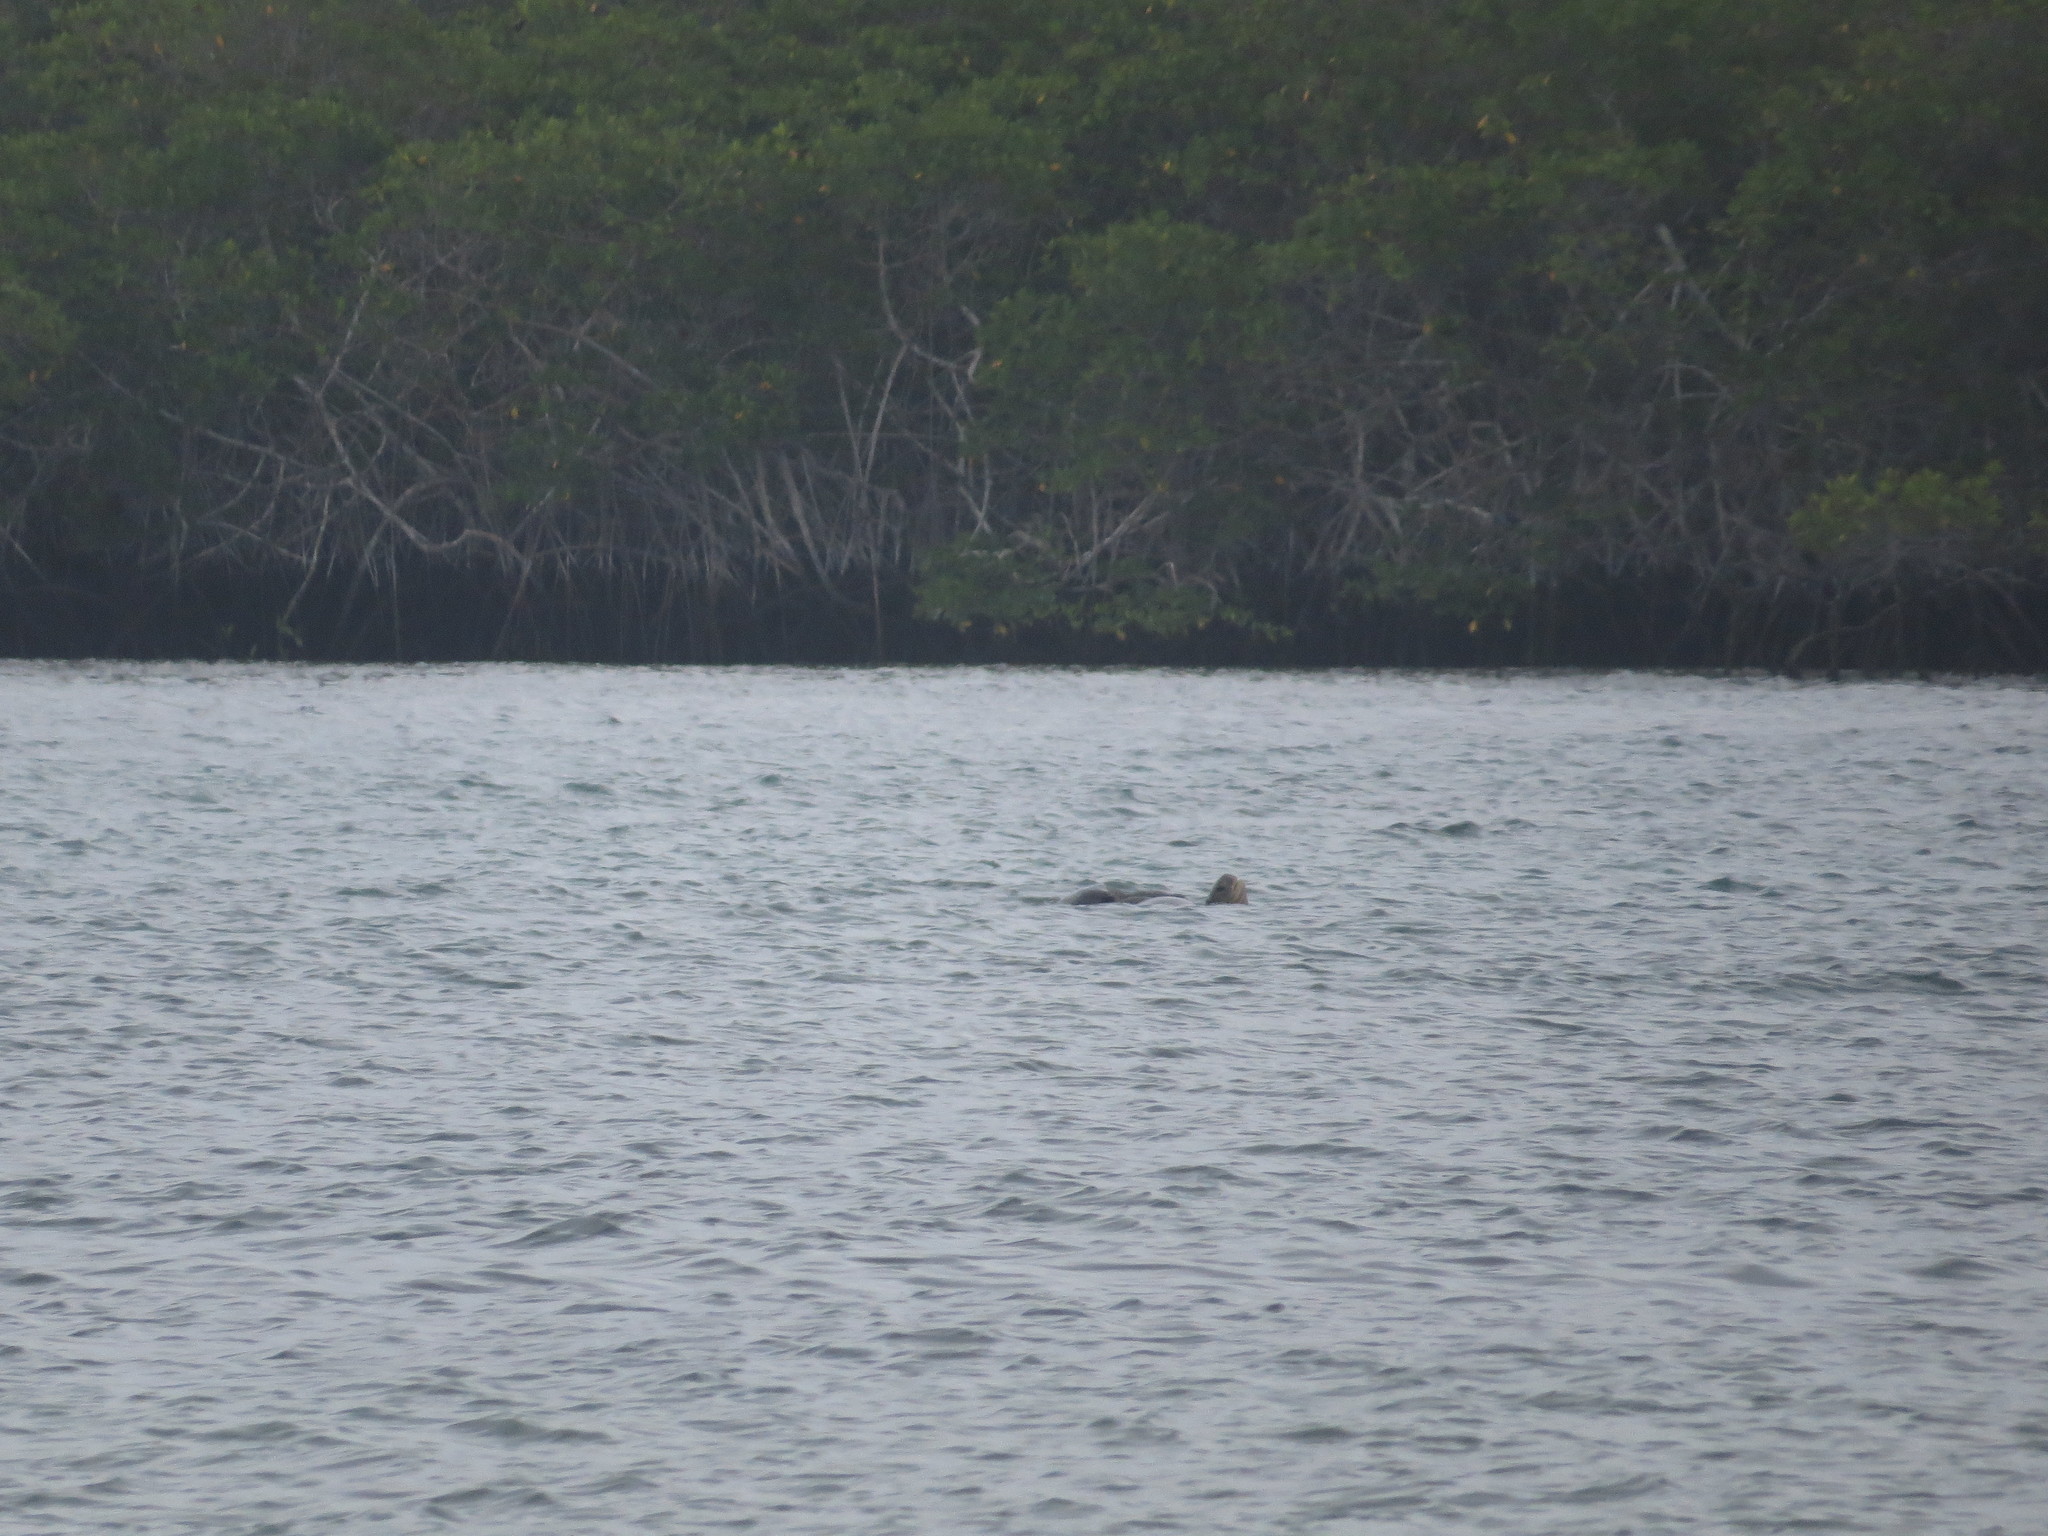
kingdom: Animalia
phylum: Chordata
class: Testudines
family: Cheloniidae
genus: Chelonia
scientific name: Chelonia mydas
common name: Green turtle
